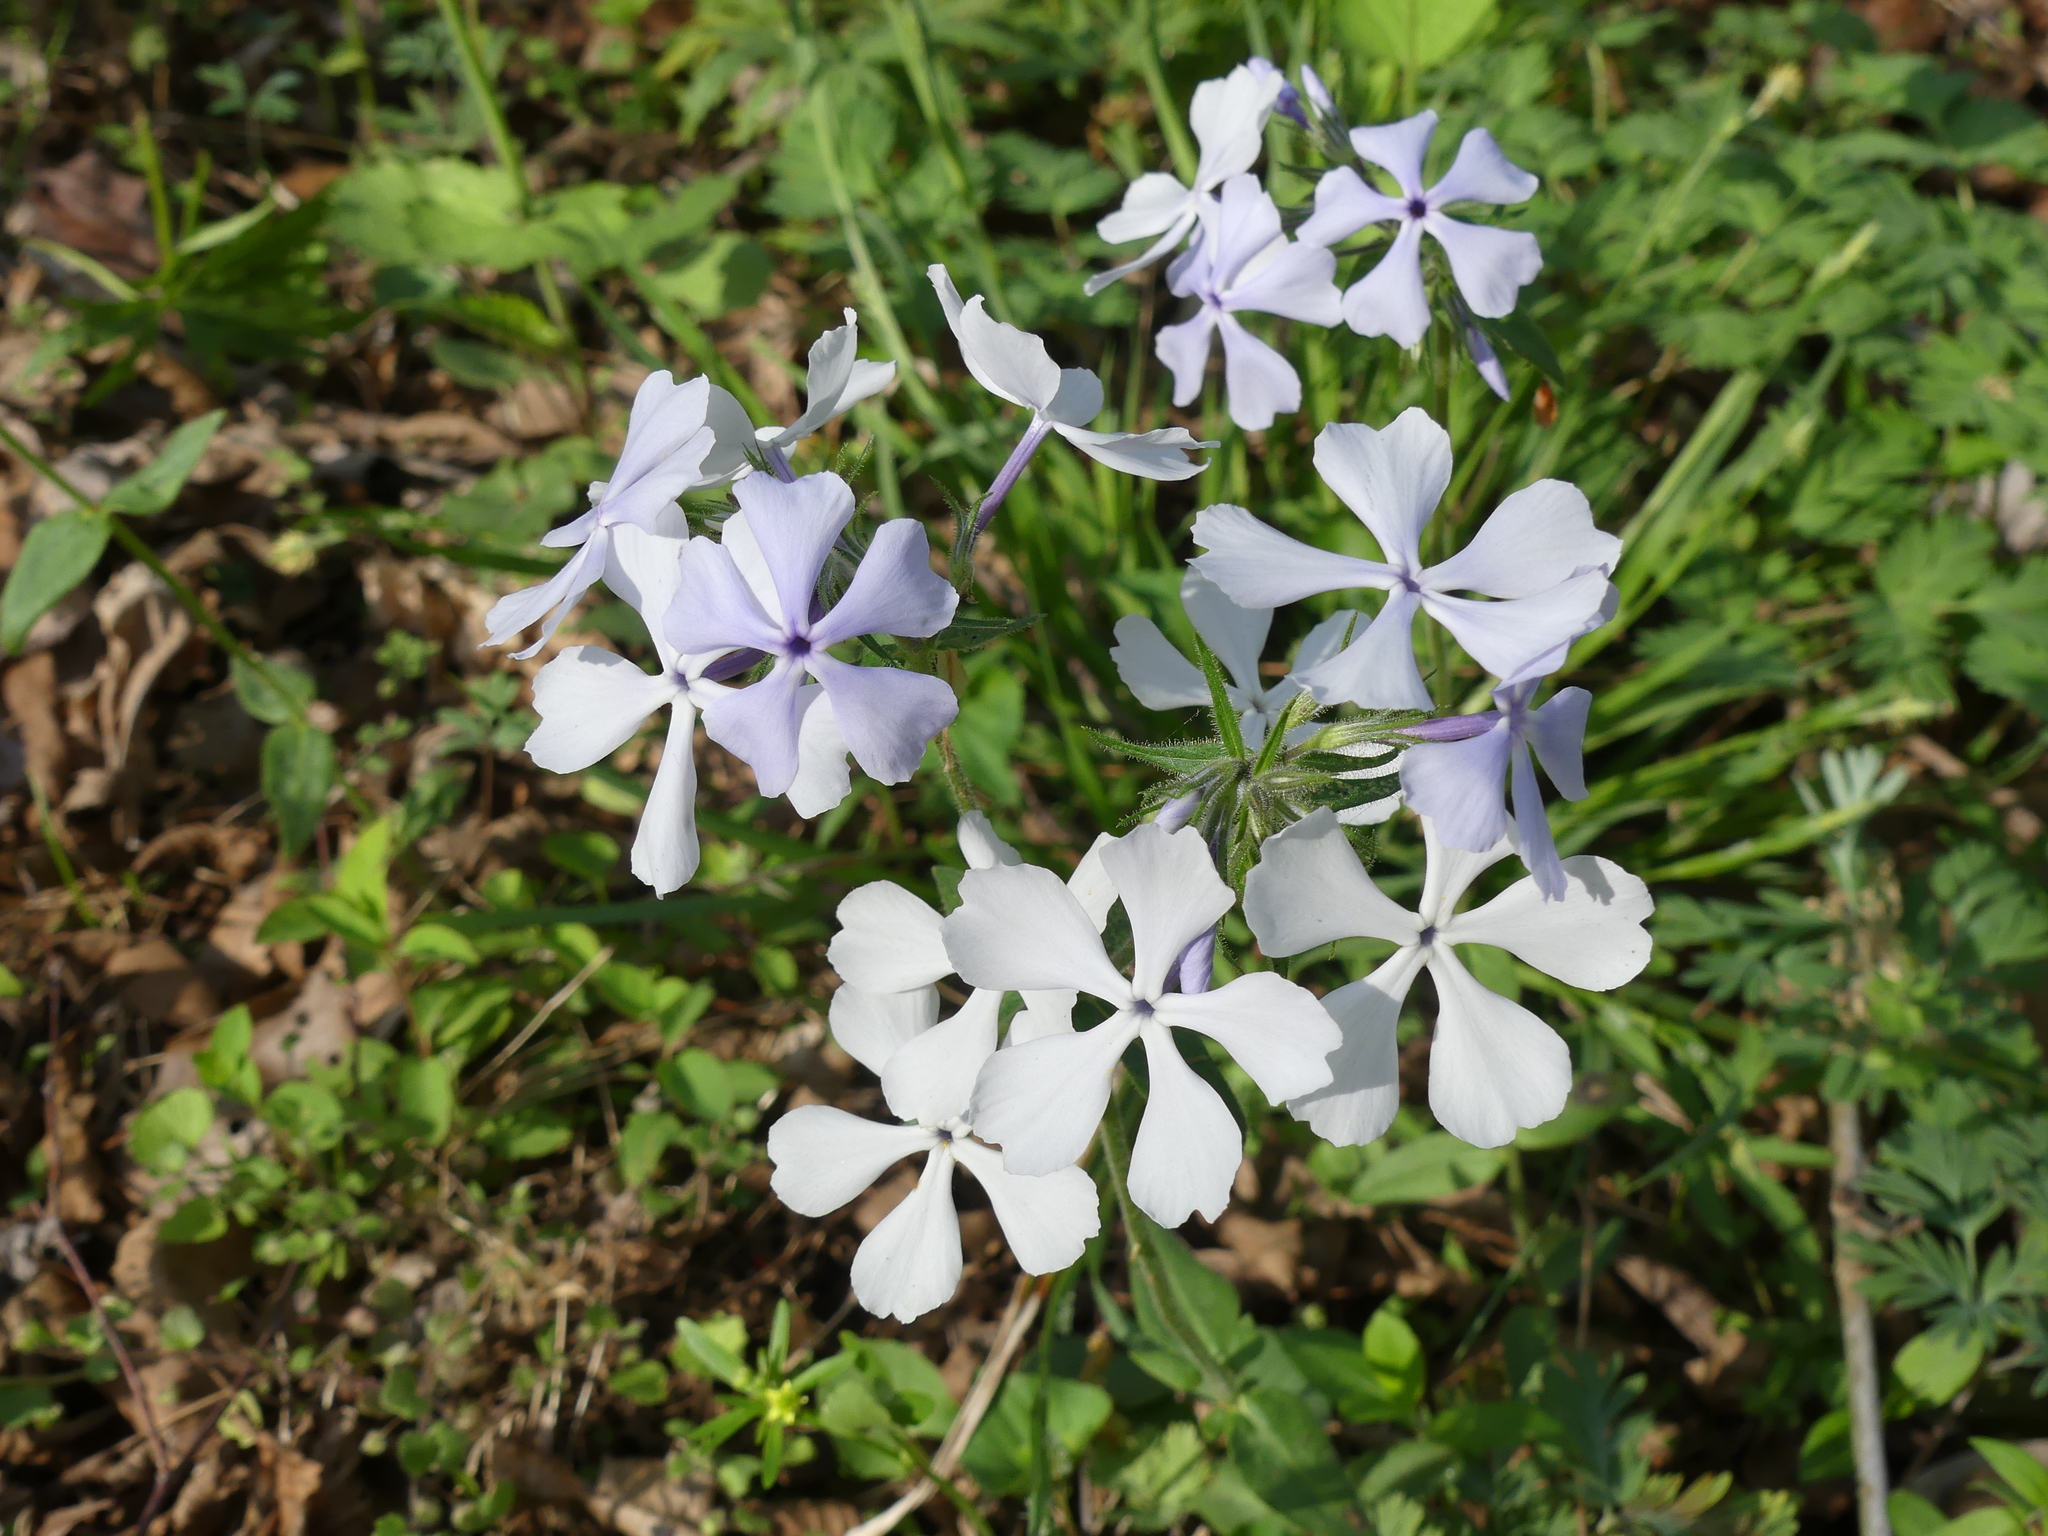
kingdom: Plantae
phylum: Tracheophyta
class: Magnoliopsida
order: Ericales
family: Polemoniaceae
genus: Phlox
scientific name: Phlox divaricata
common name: Blue phlox
